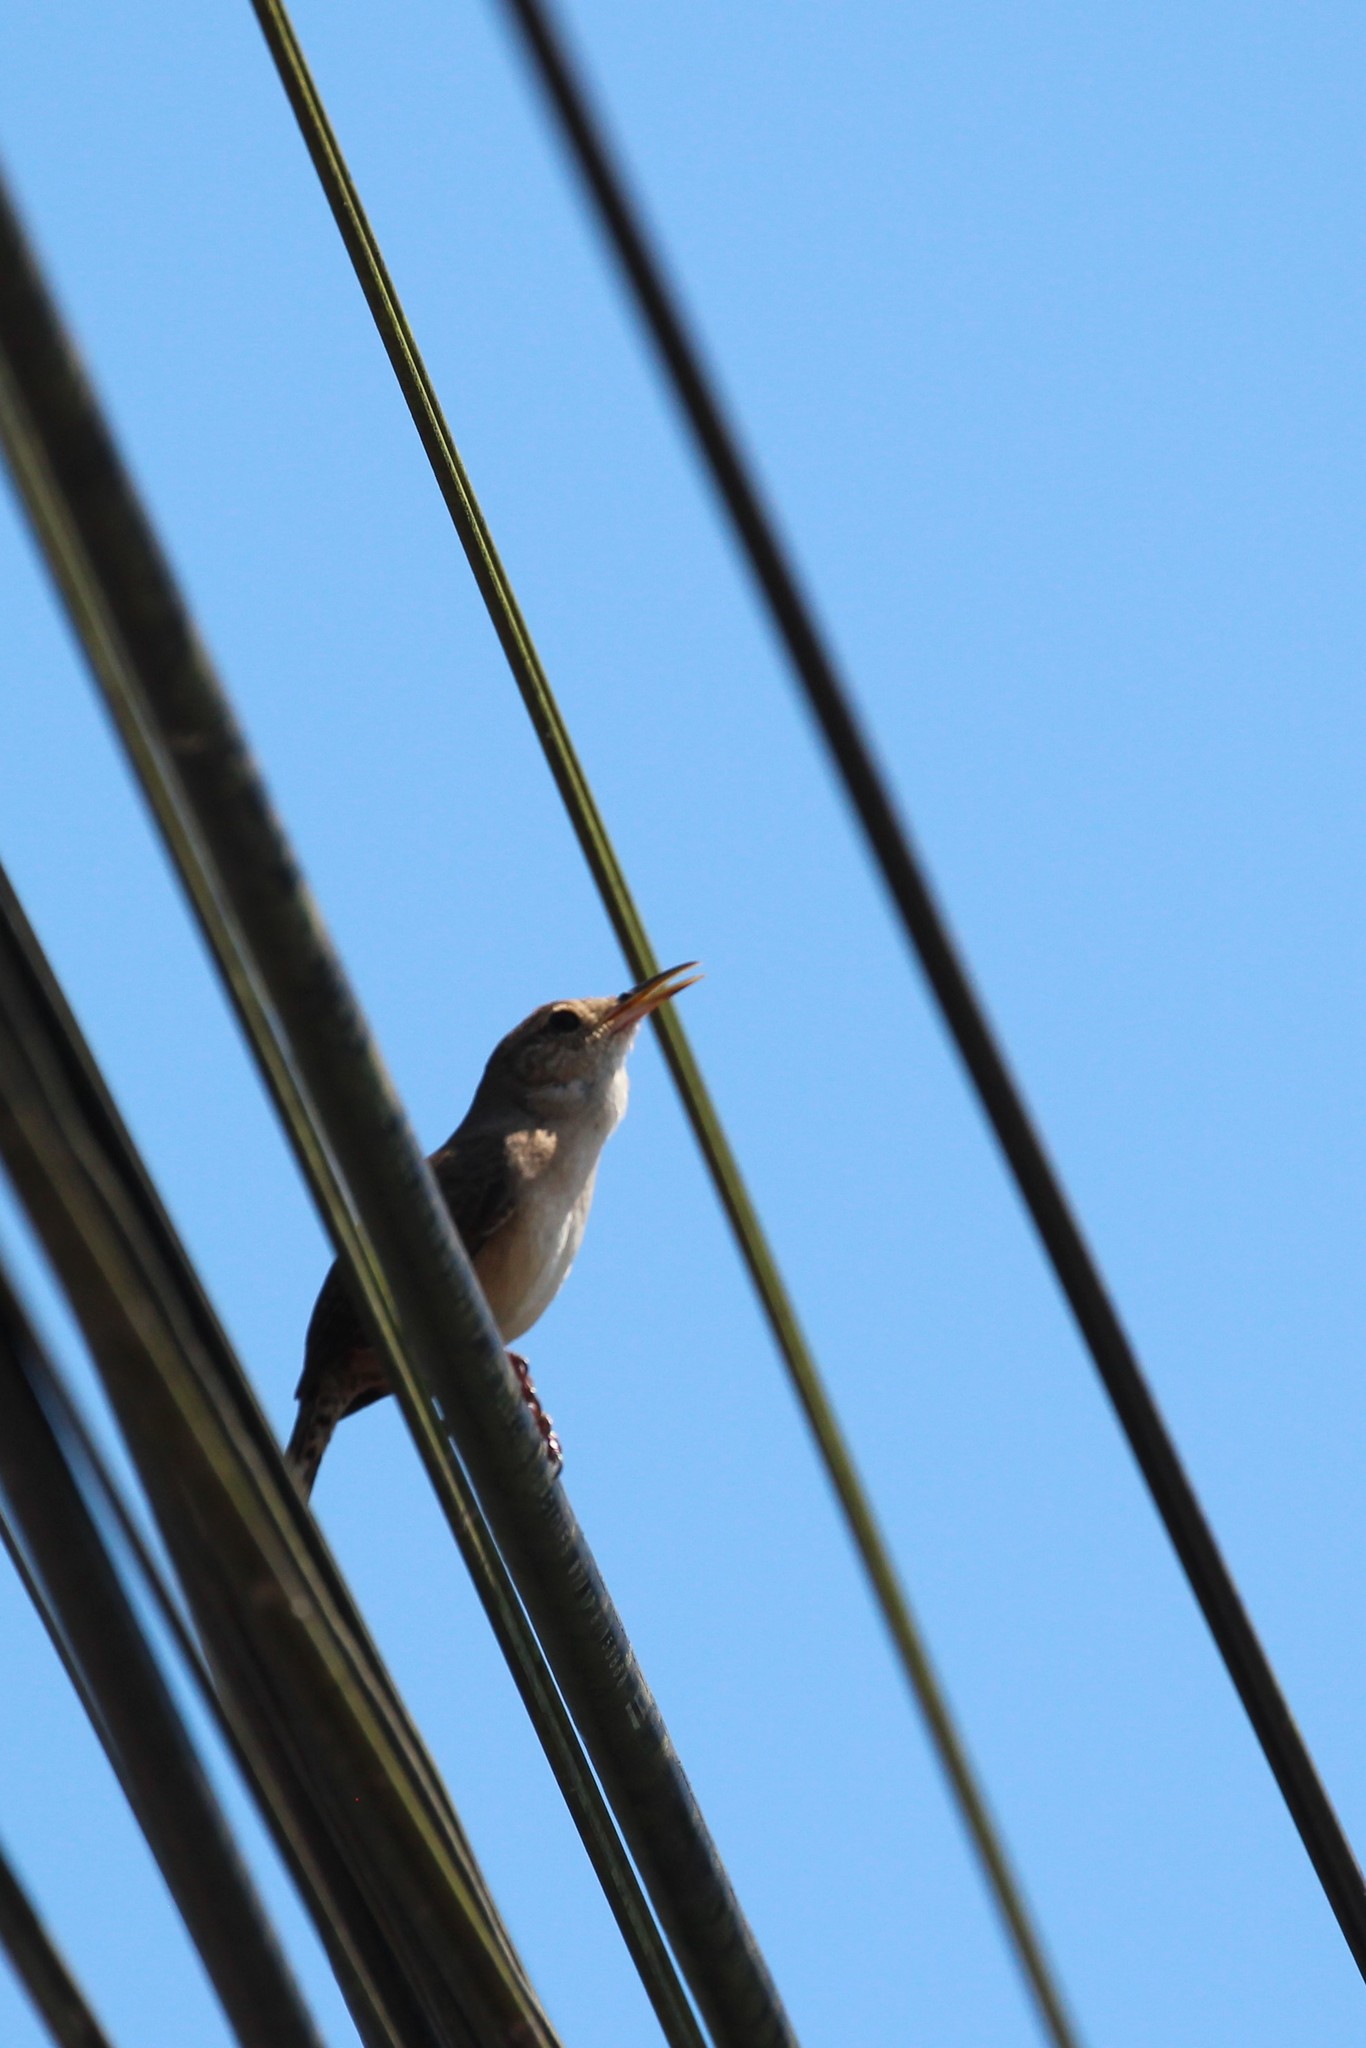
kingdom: Animalia
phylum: Chordata
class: Aves
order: Passeriformes
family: Troglodytidae
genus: Troglodytes
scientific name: Troglodytes aedon
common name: House wren
